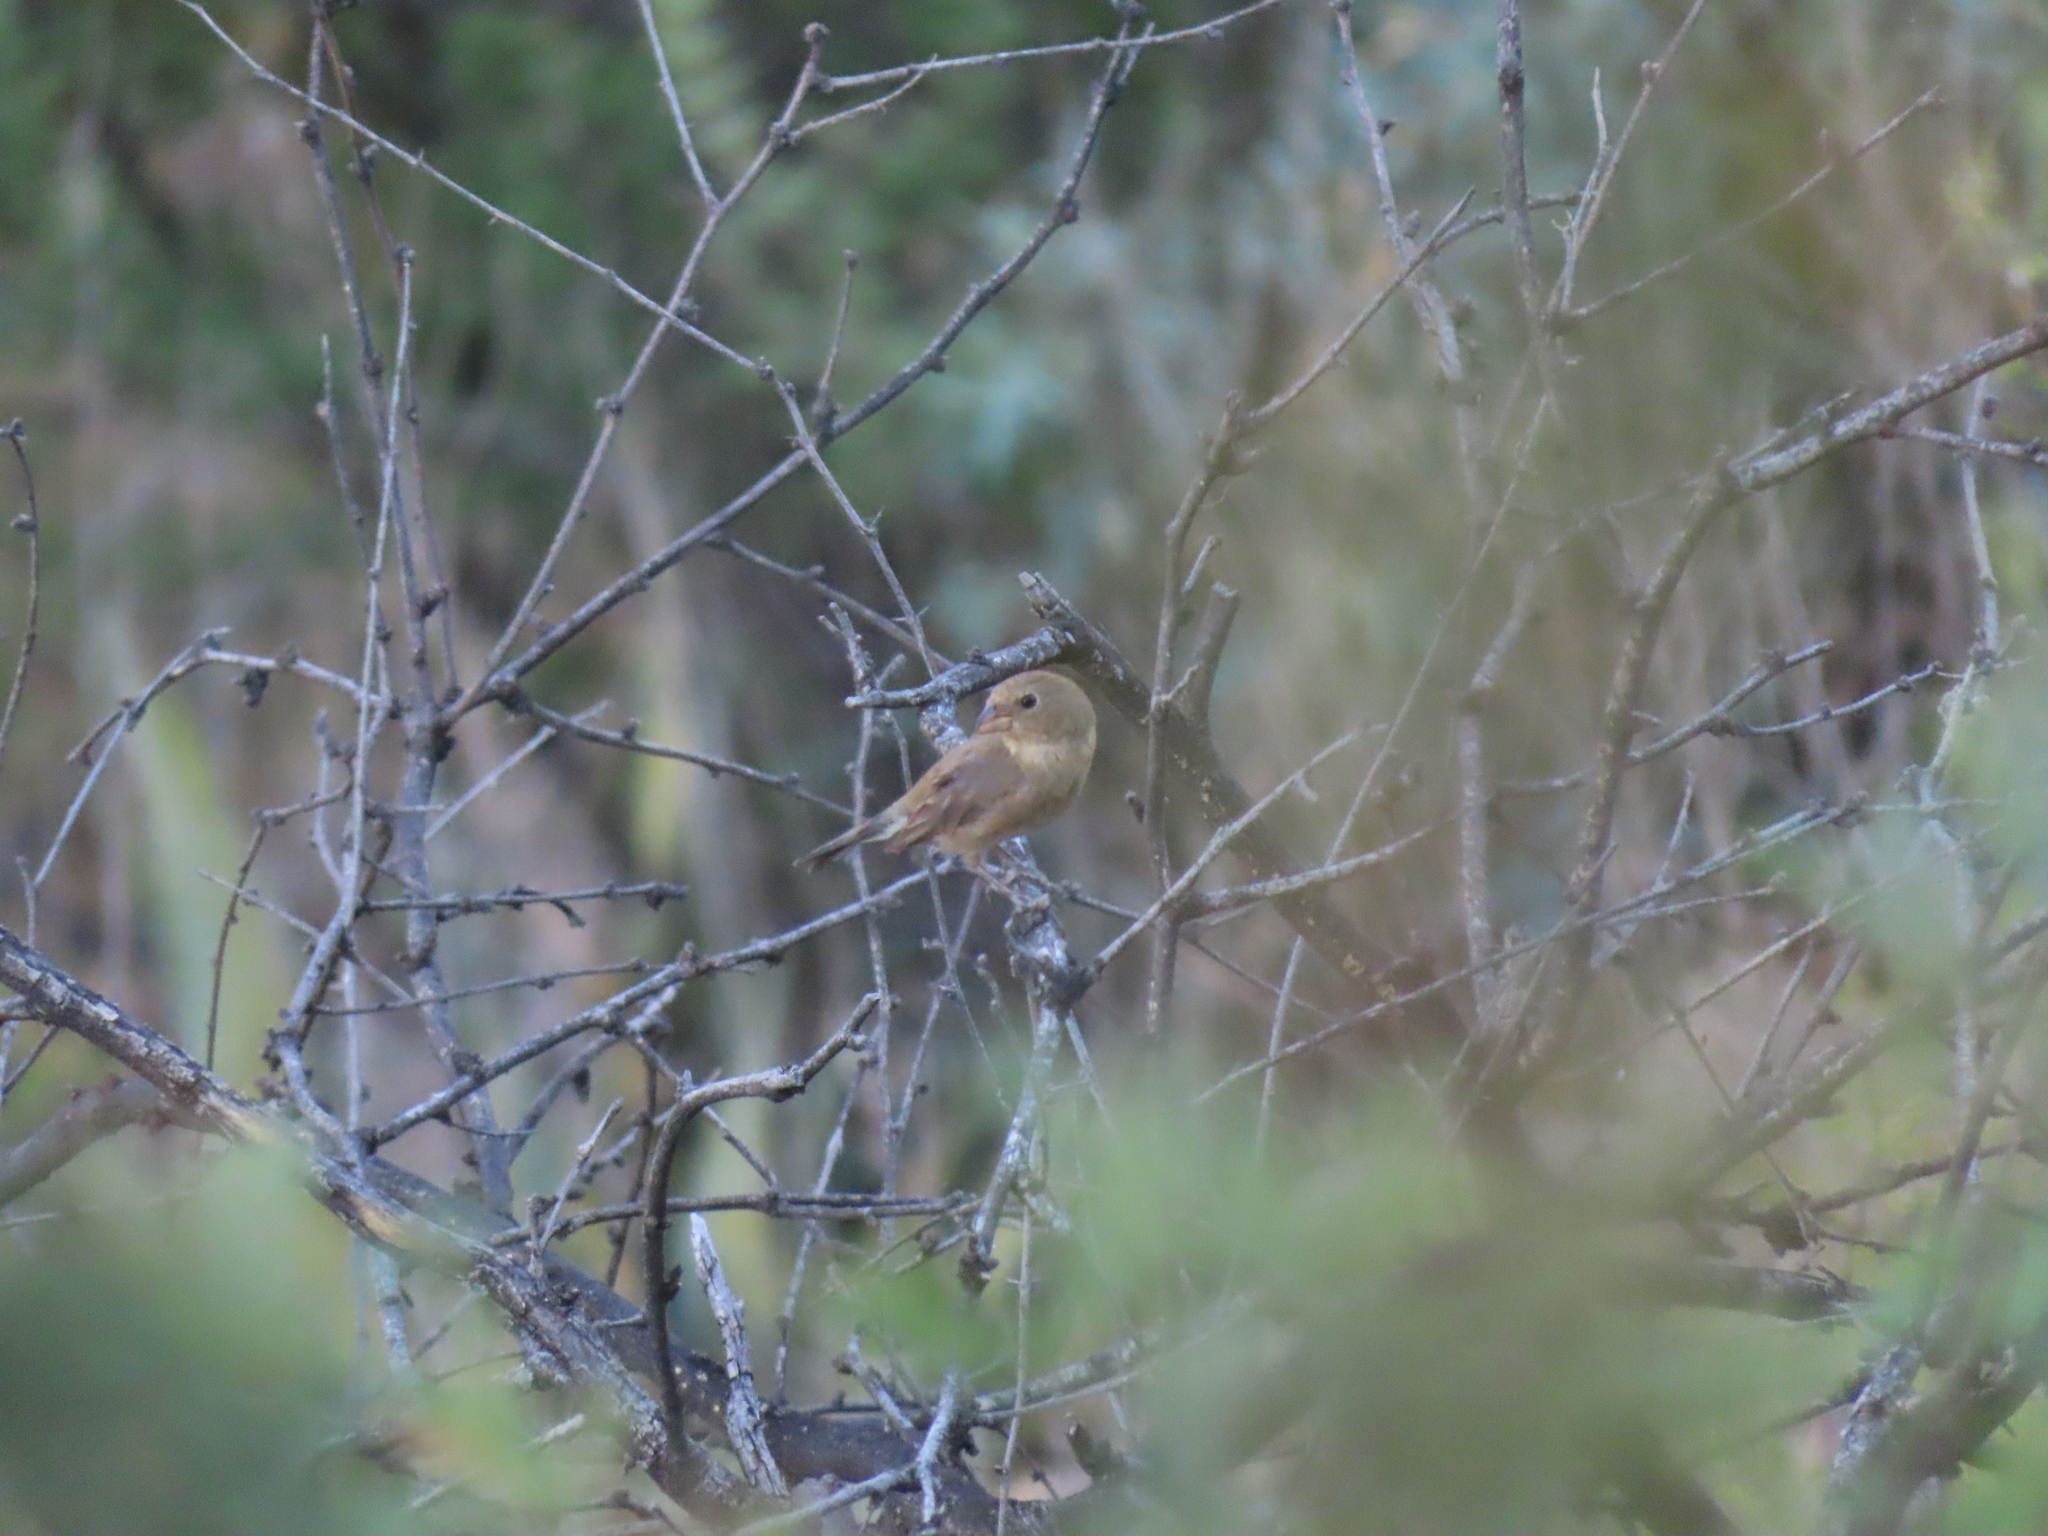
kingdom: Animalia
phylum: Chordata
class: Aves
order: Passeriformes
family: Cardinalidae
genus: Passerina
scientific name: Passerina versicolor
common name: Varied bunting
